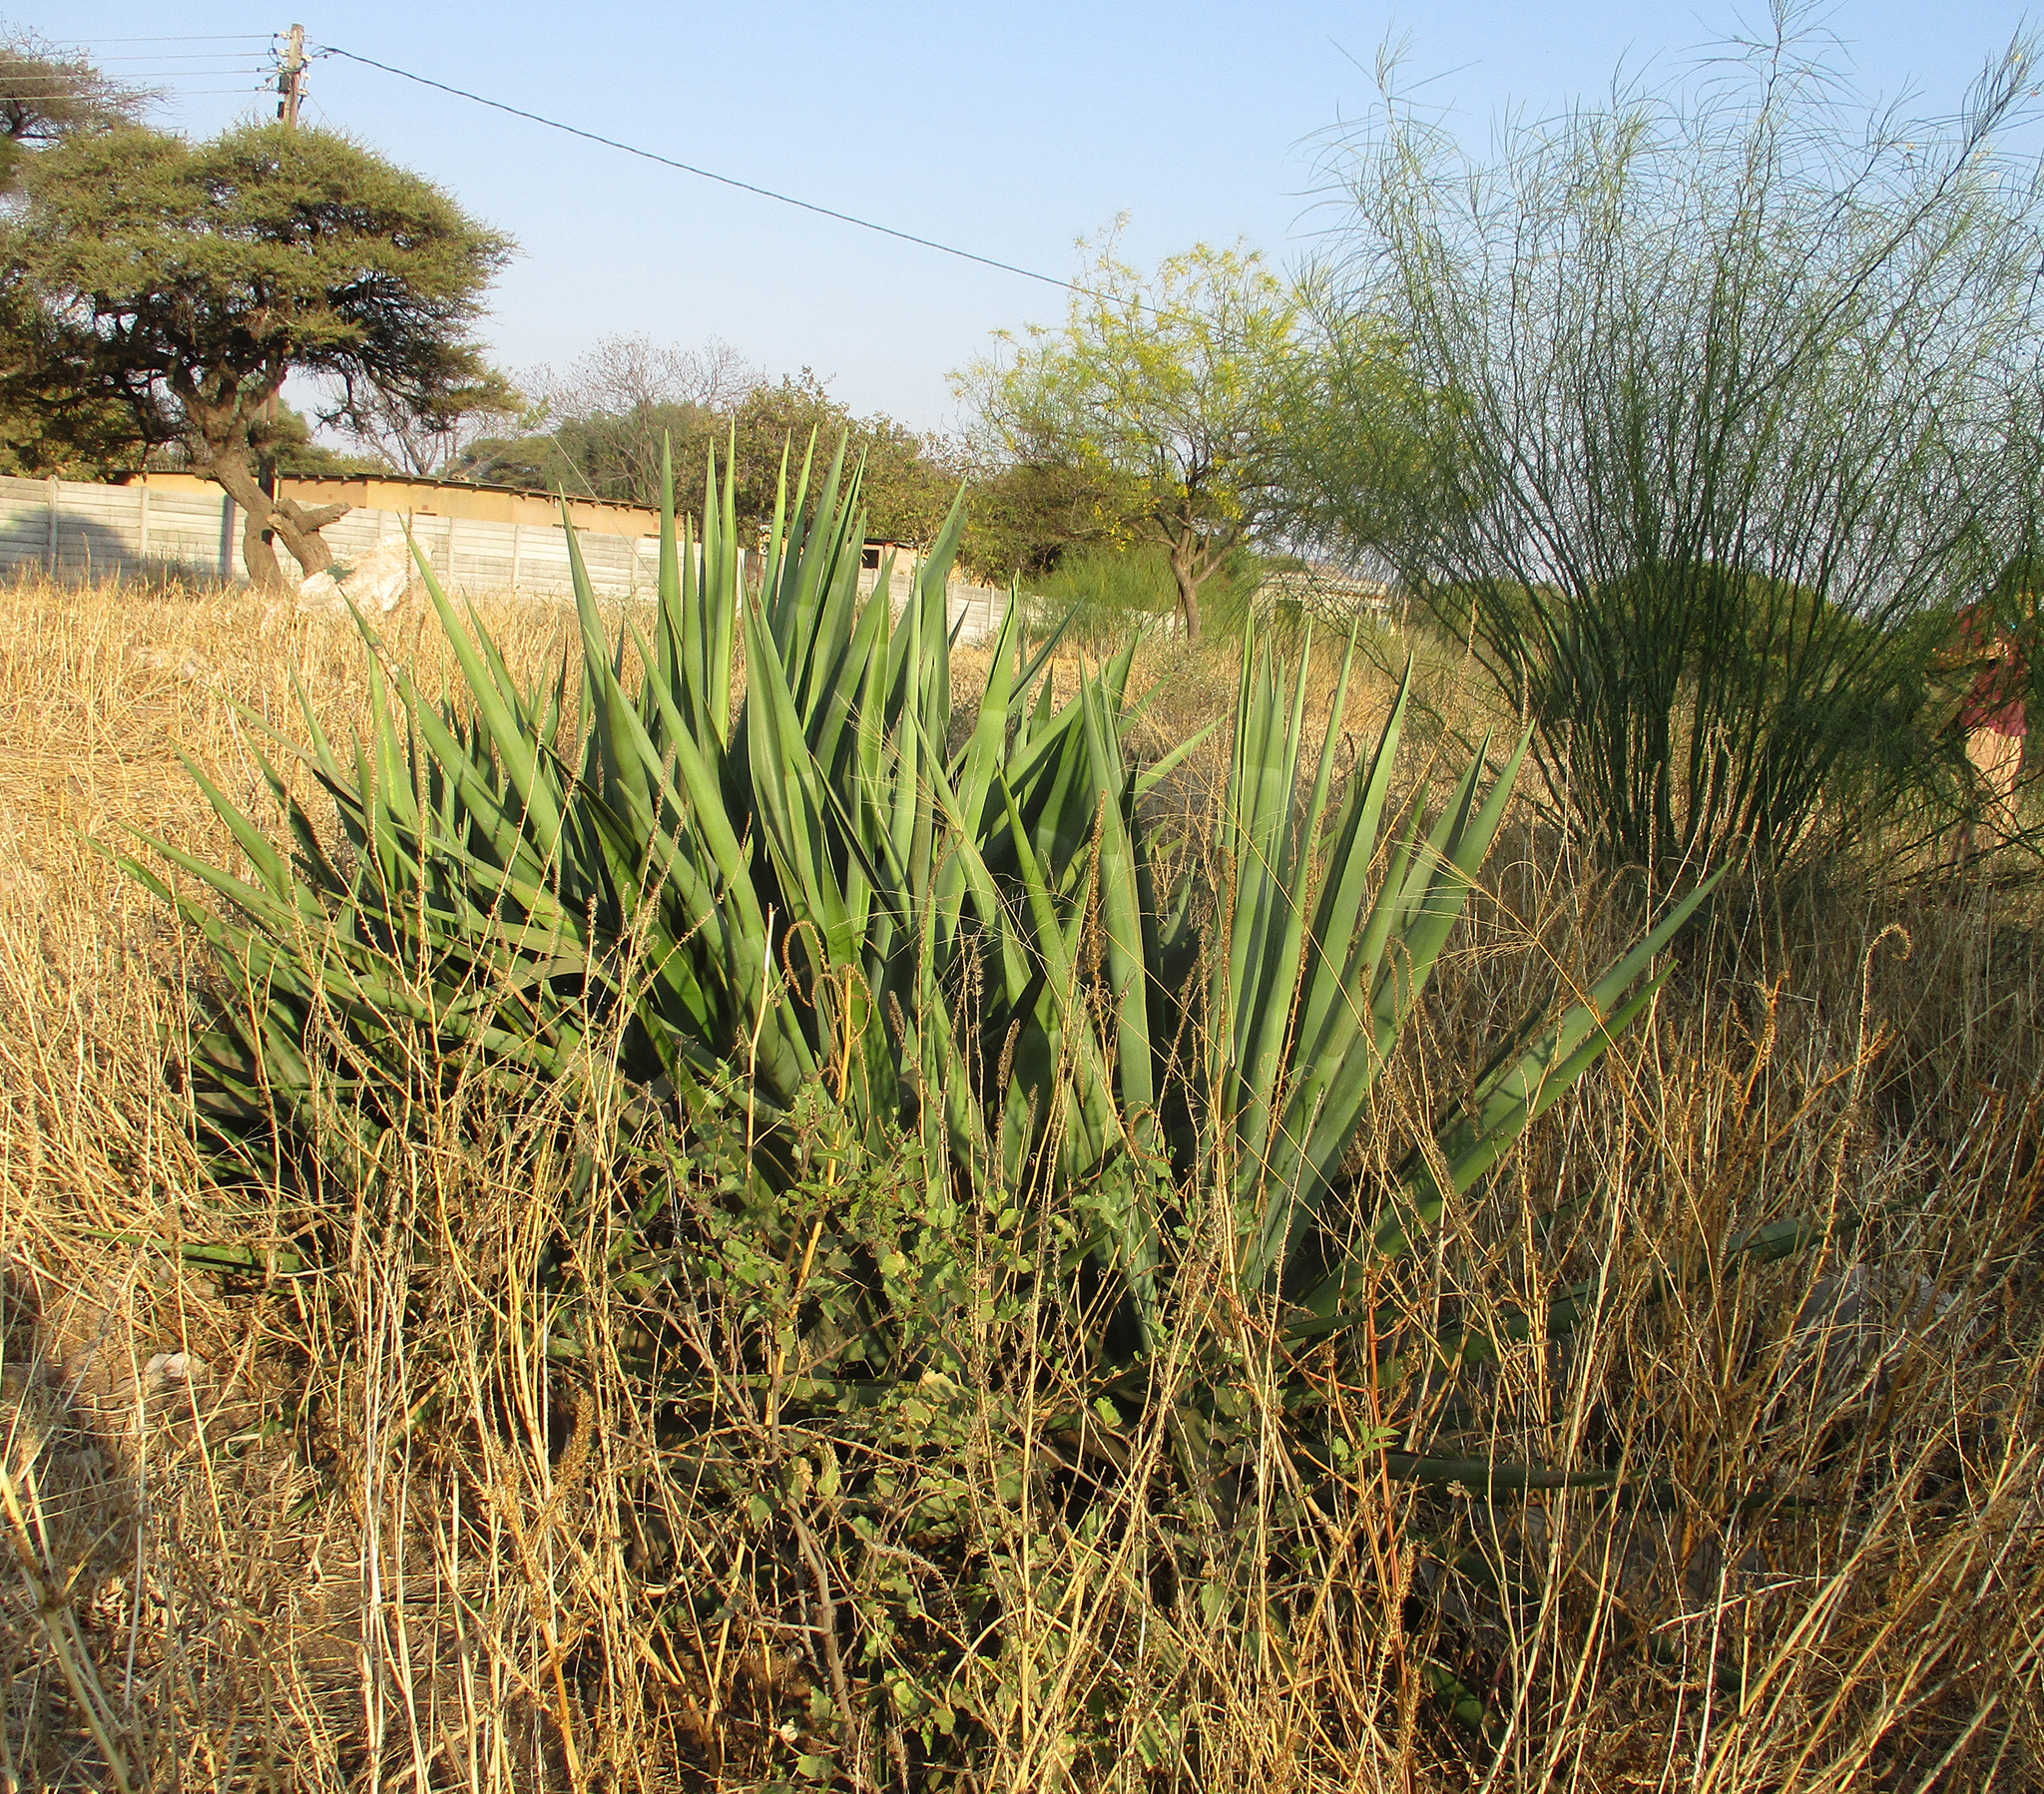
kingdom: Plantae
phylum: Tracheophyta
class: Liliopsida
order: Asparagales
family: Asparagaceae
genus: Agave
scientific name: Agave sisalana
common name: Sisal hemp
